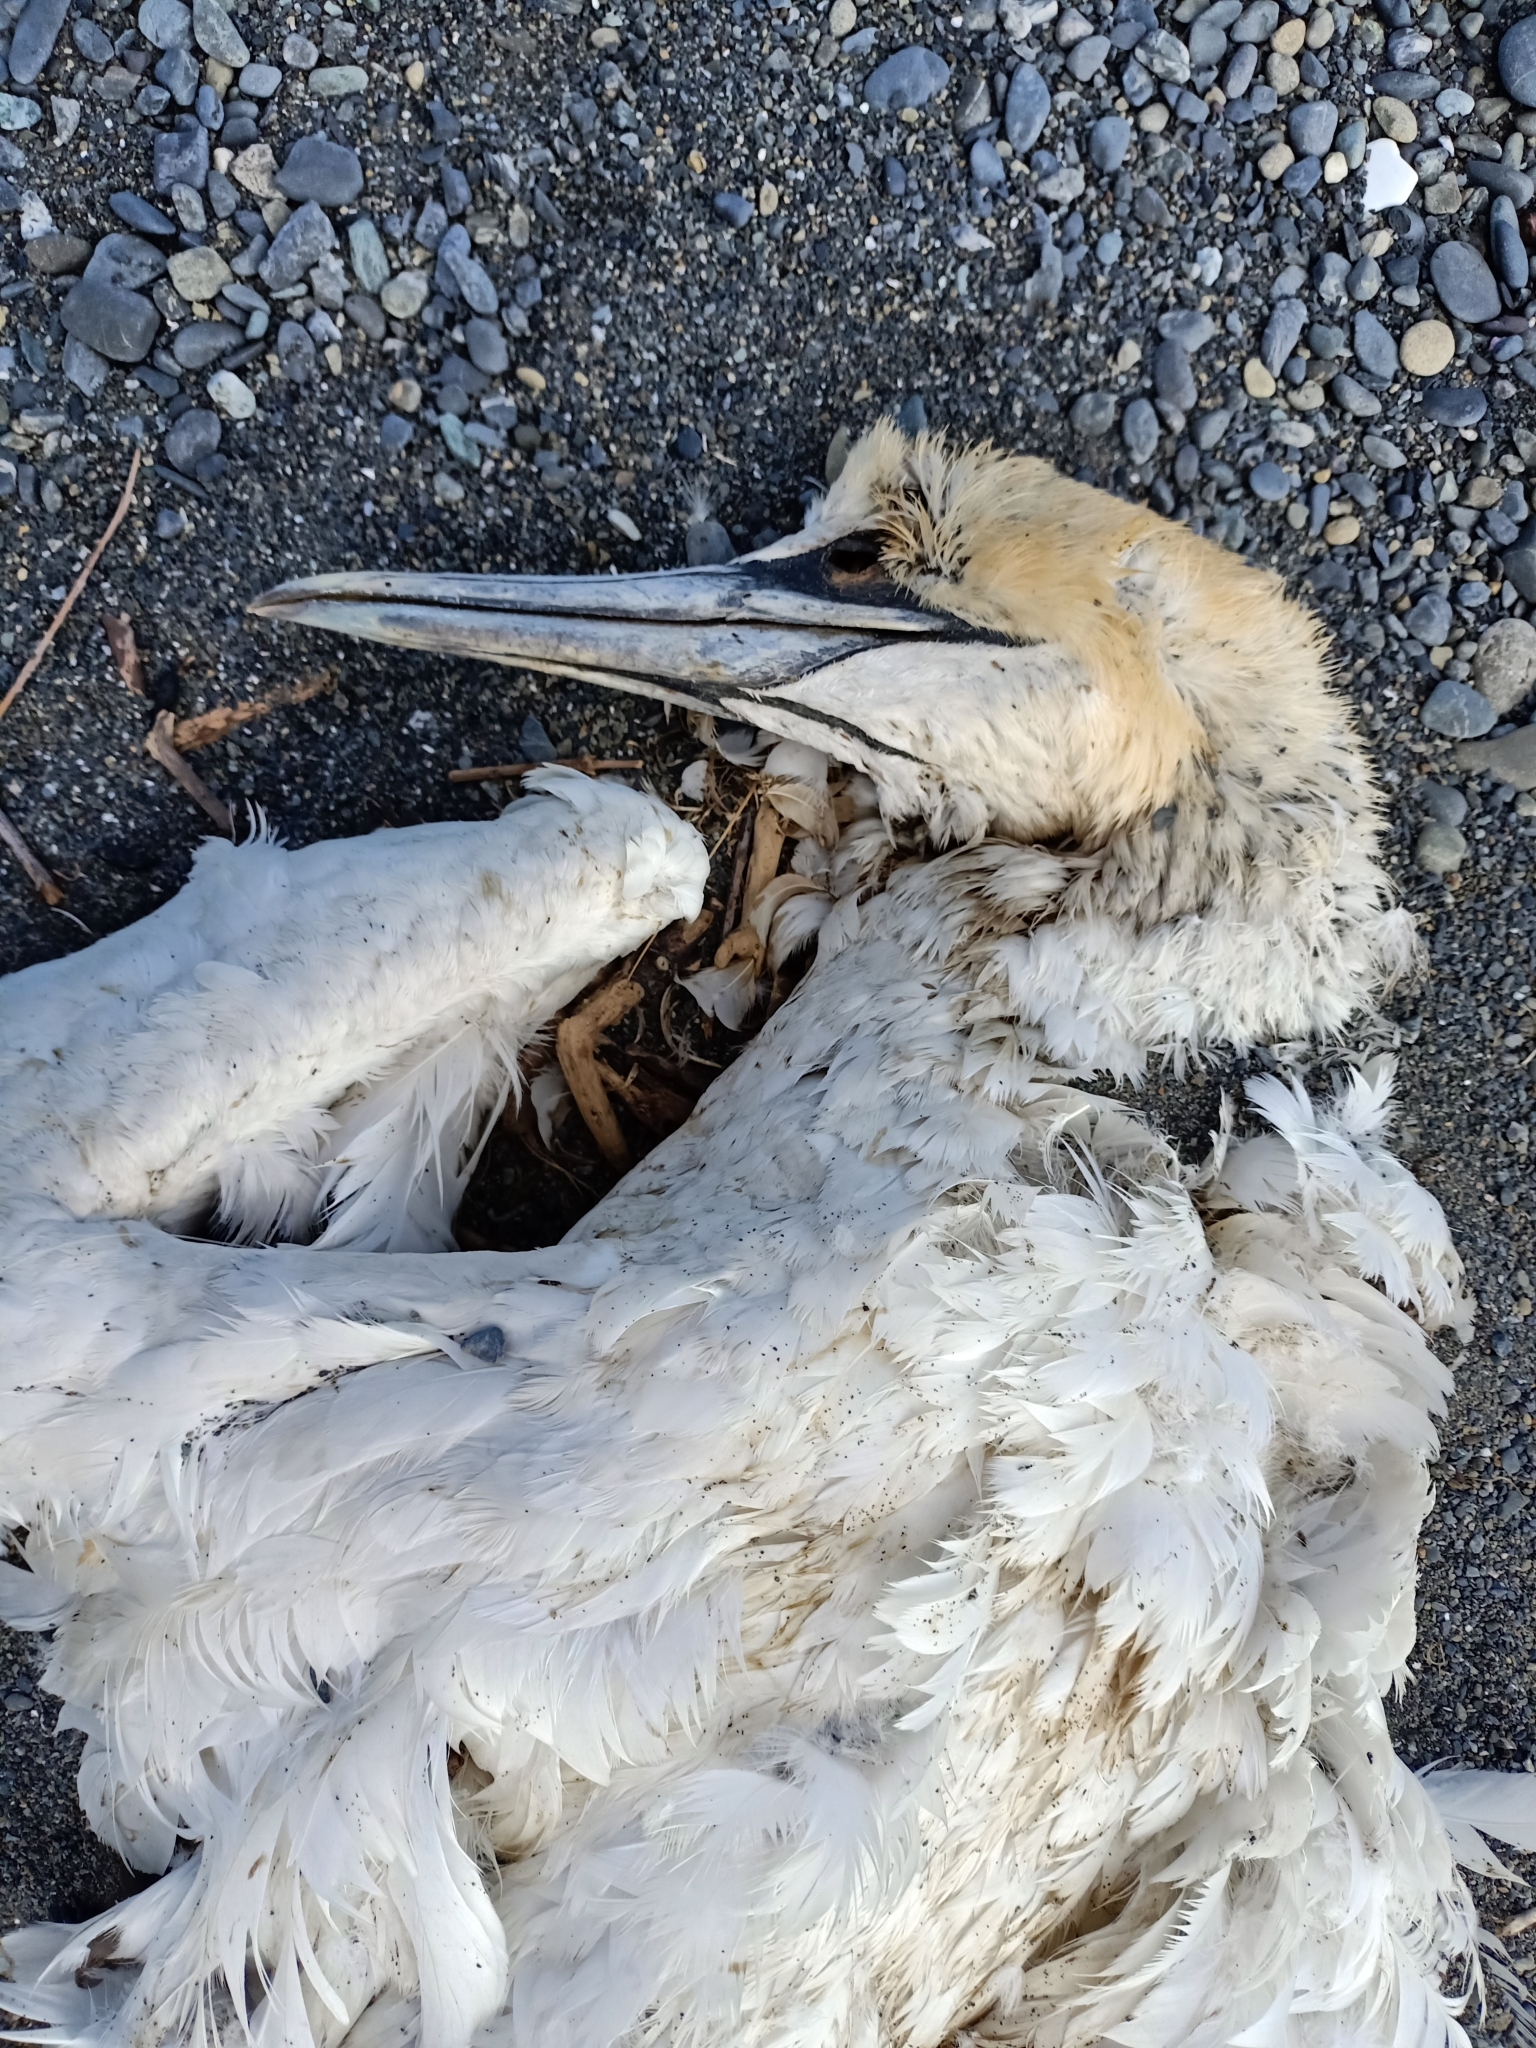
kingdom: Animalia
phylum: Chordata
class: Aves
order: Suliformes
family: Sulidae
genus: Morus
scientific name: Morus serrator
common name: Australasian gannet
